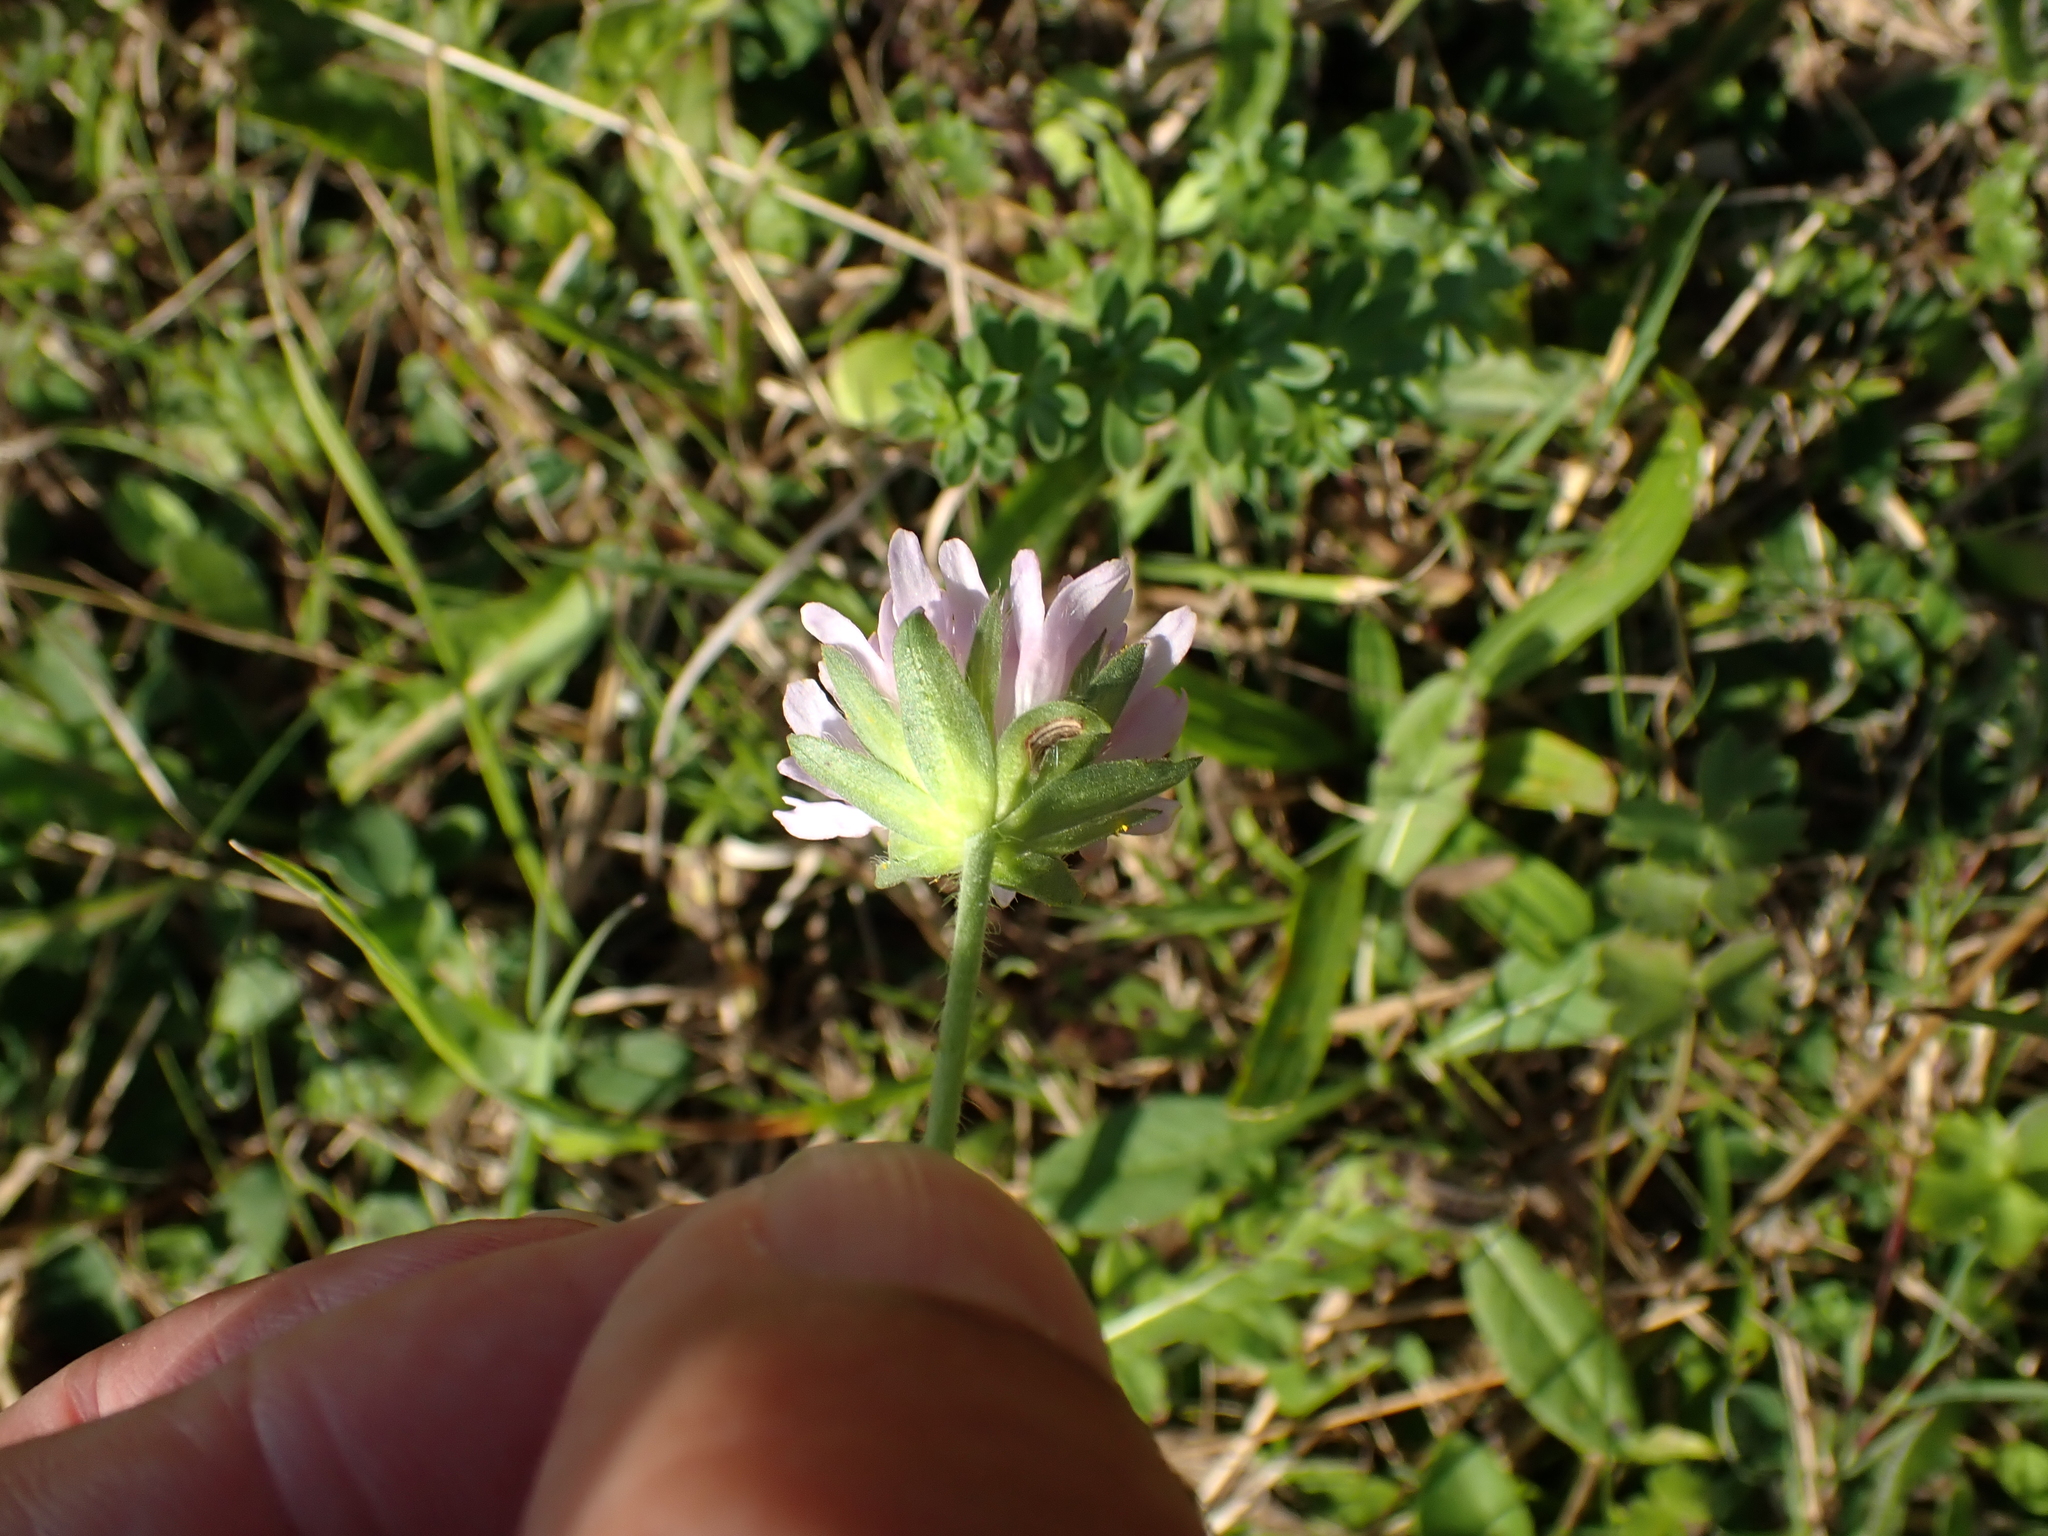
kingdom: Plantae
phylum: Tracheophyta
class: Magnoliopsida
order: Dipsacales
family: Caprifoliaceae
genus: Knautia
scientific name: Knautia arvensis
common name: Field scabiosa
